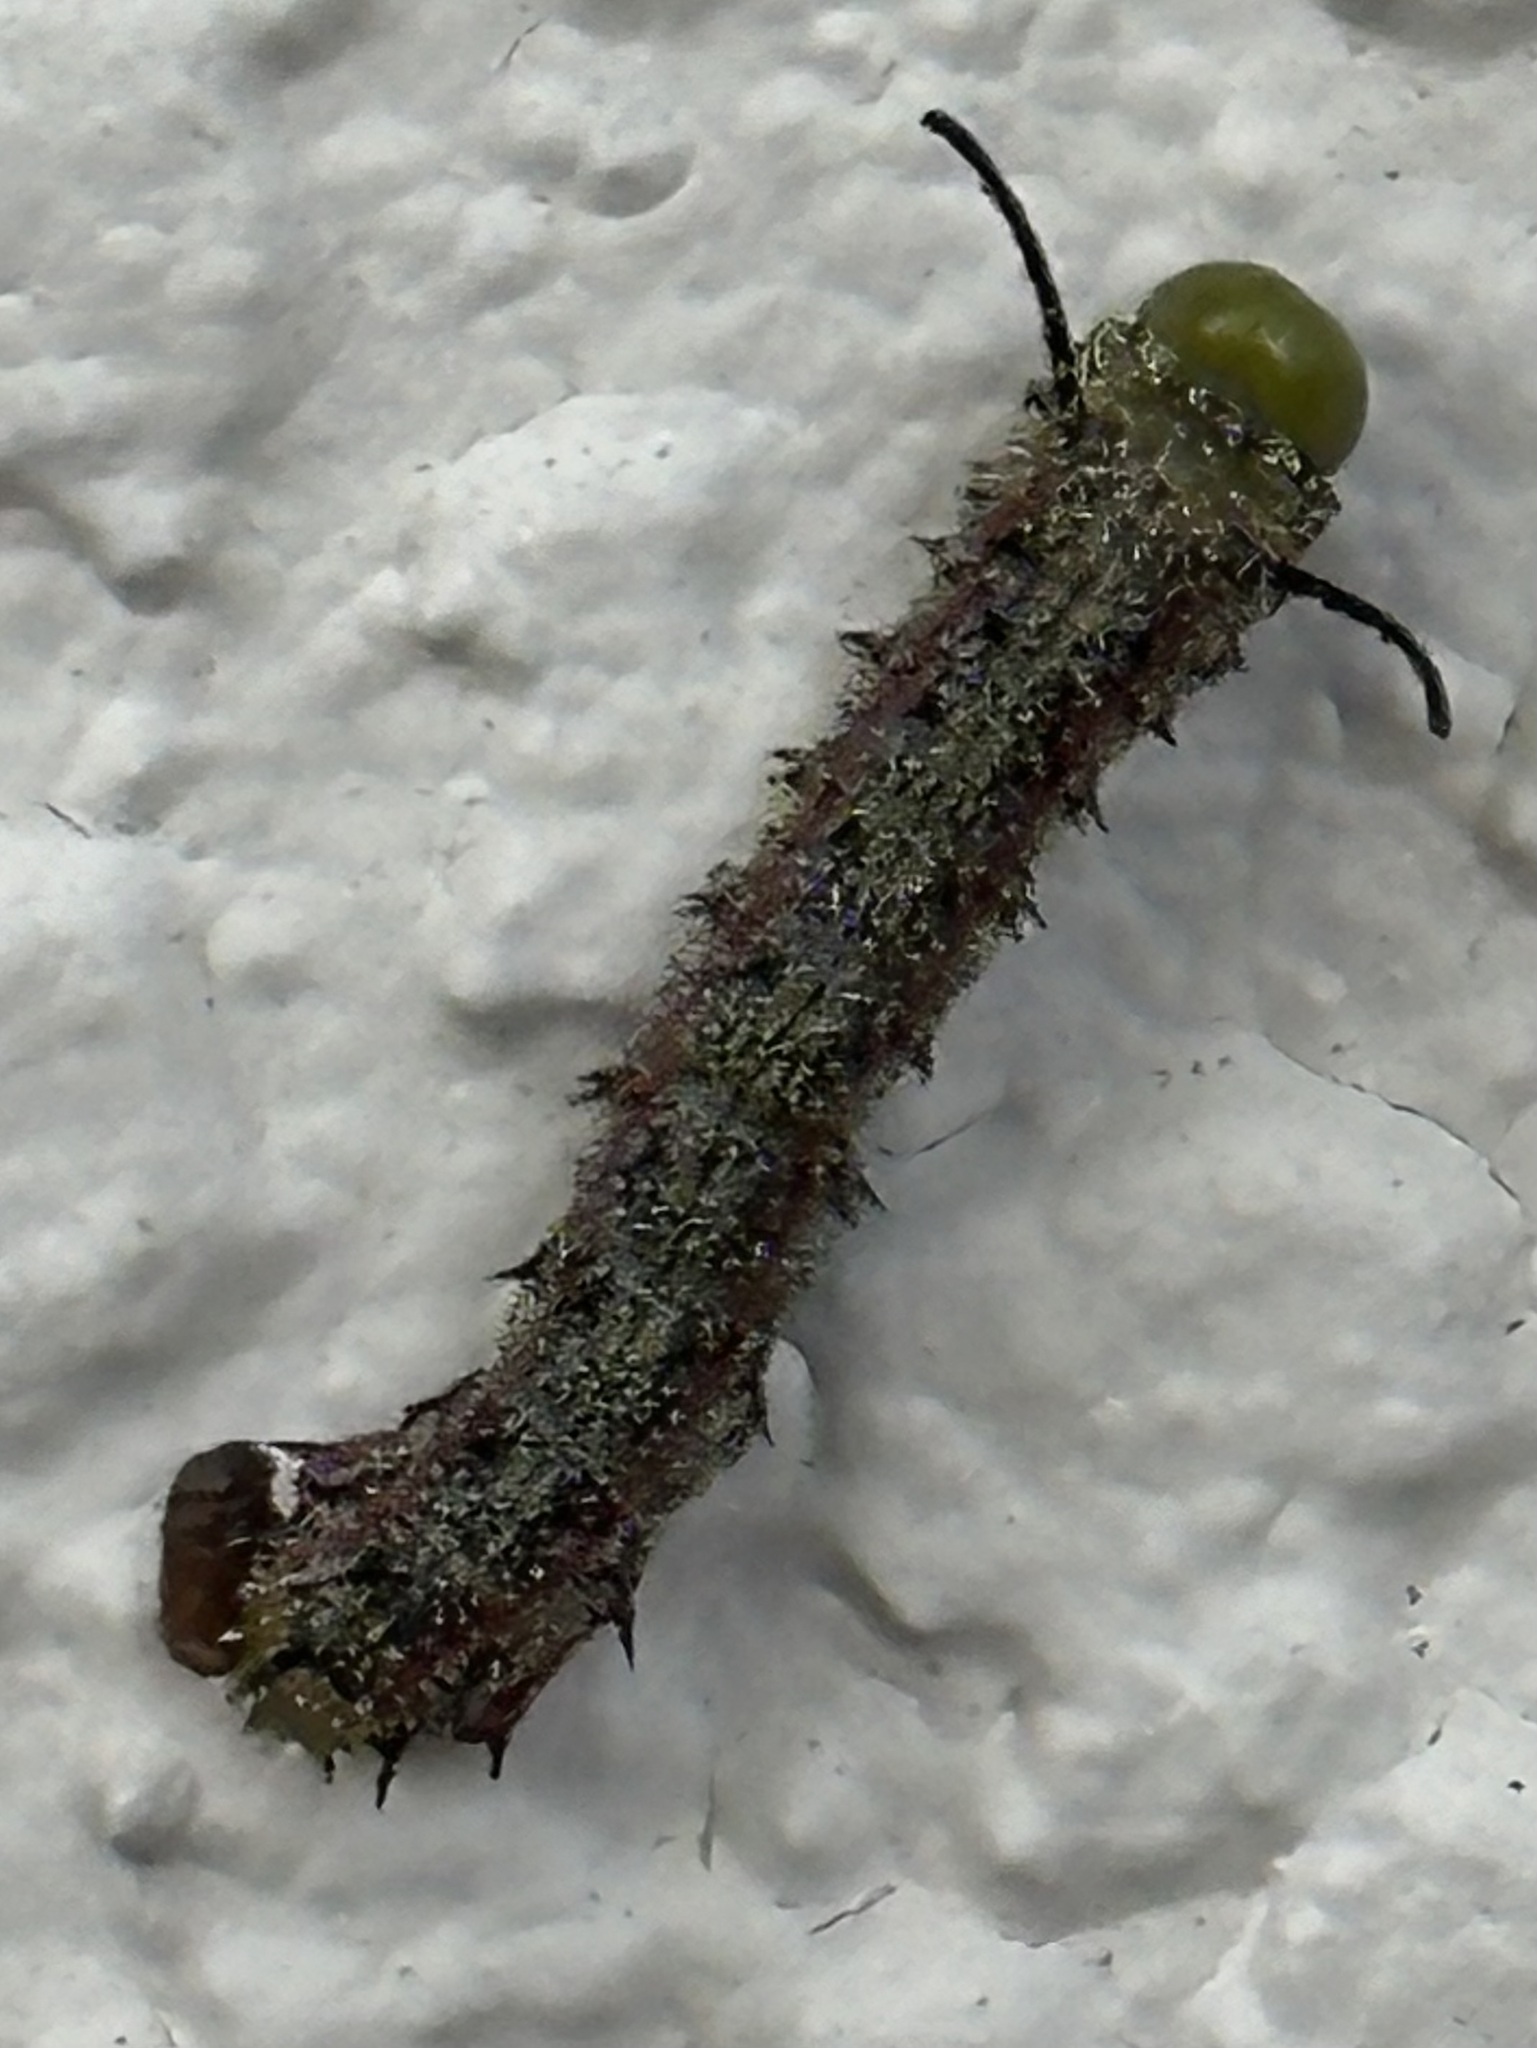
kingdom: Animalia
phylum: Arthropoda
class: Insecta
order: Lepidoptera
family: Saturniidae
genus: Anisota
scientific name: Anisota virginiensis
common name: Pink striped oakworm moth
